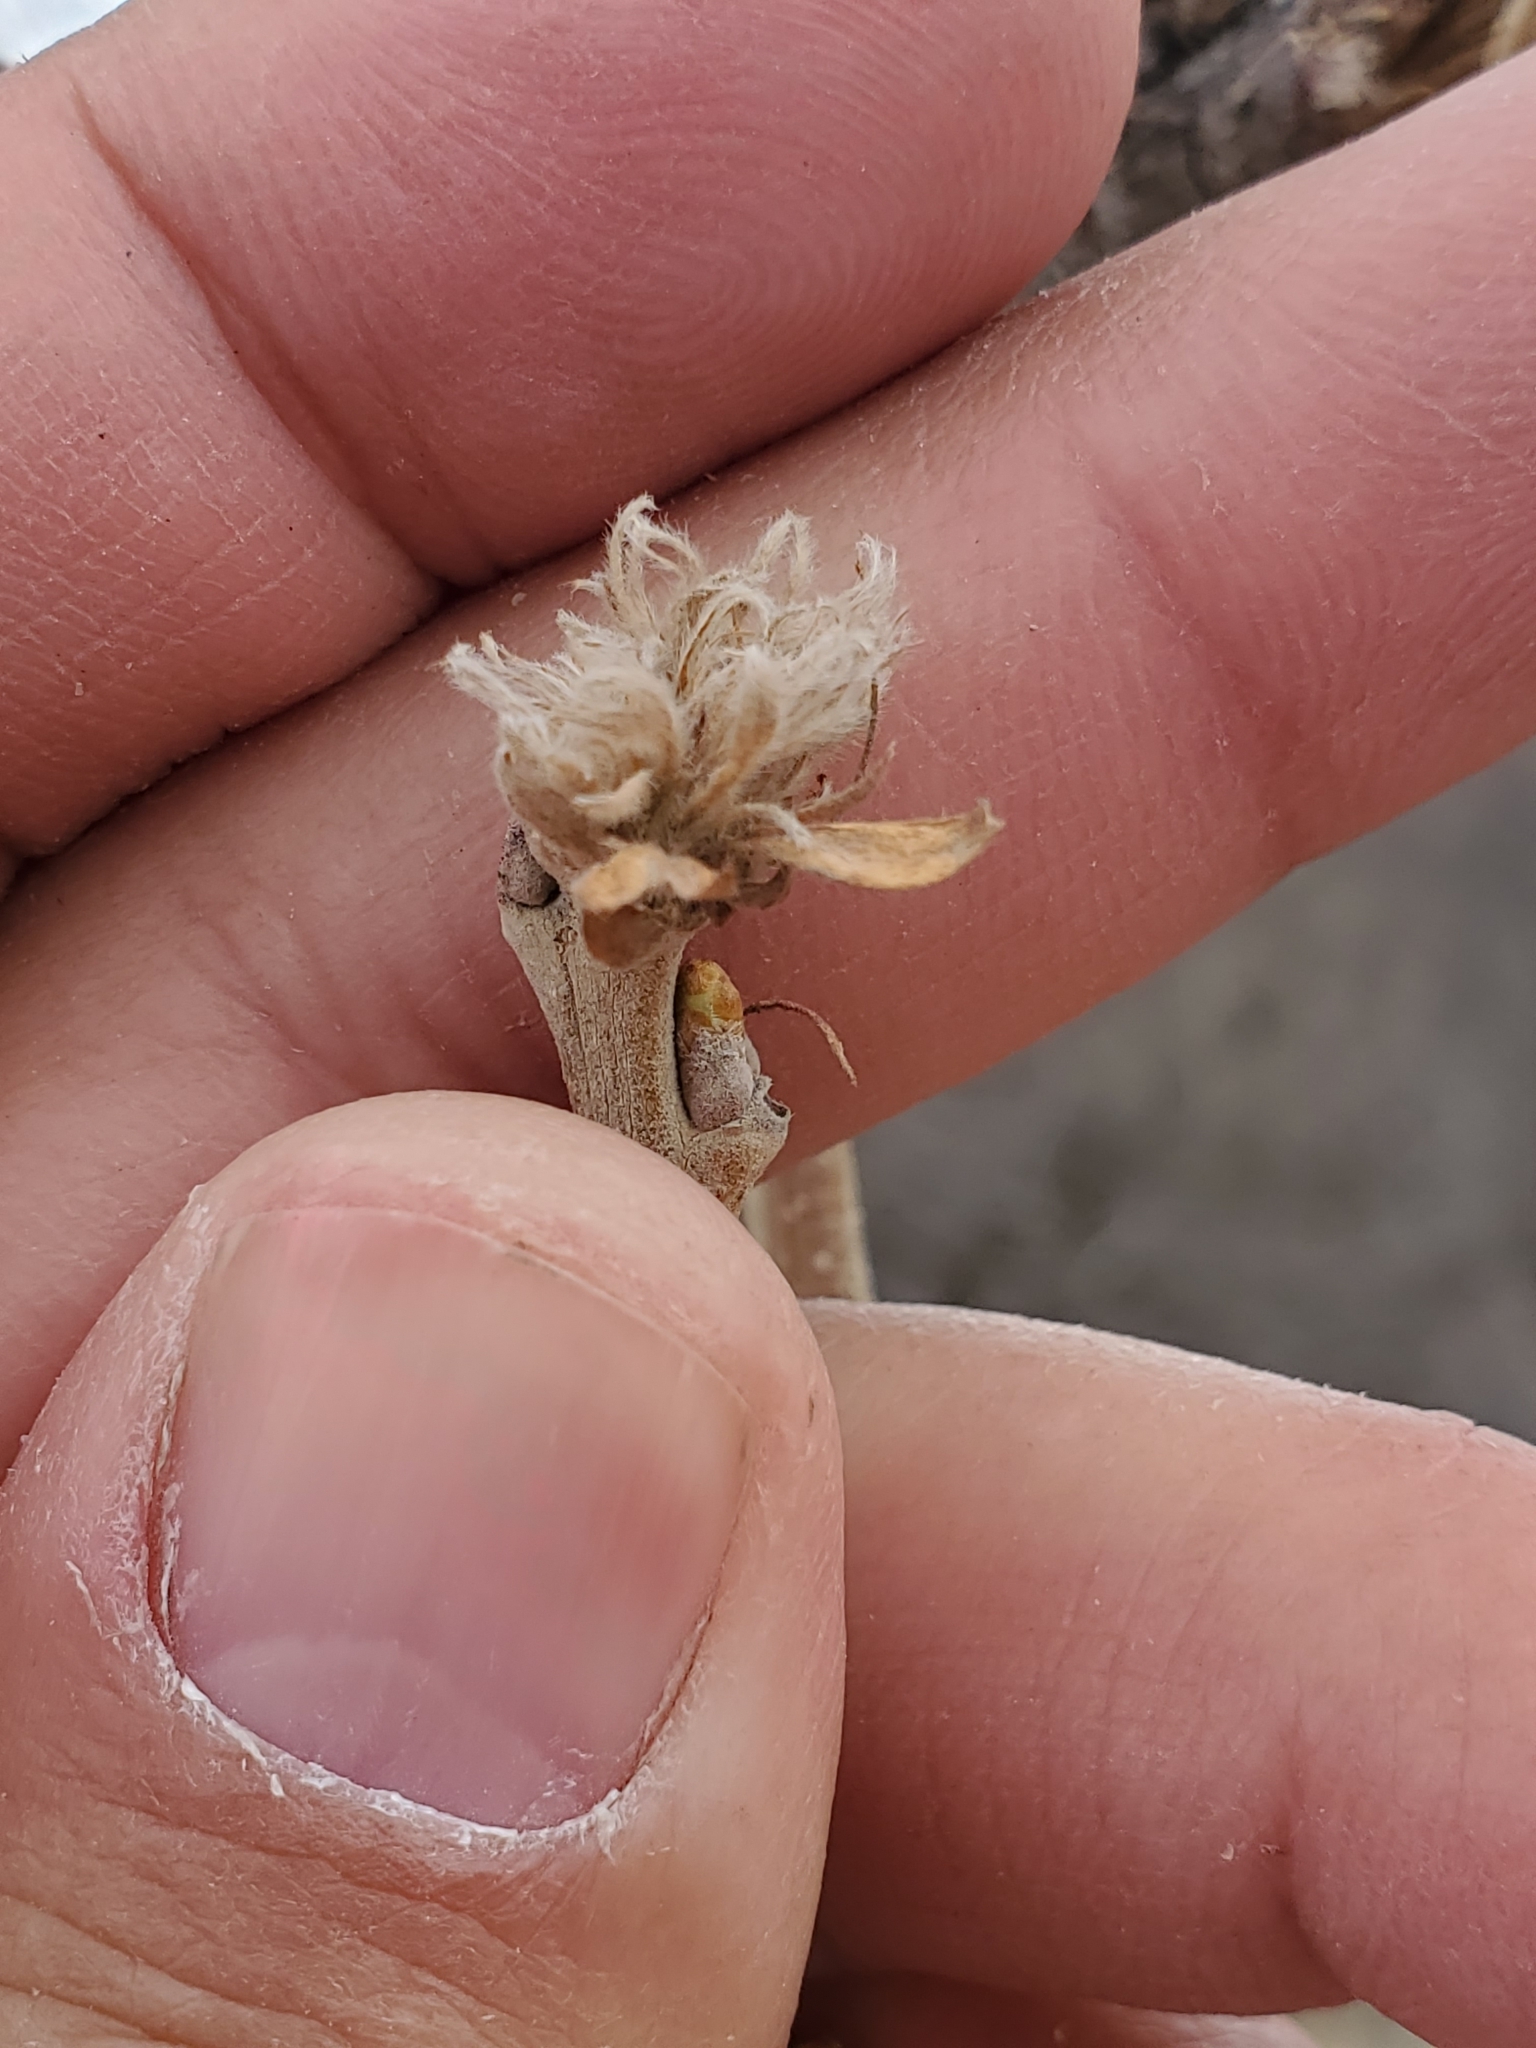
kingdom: Animalia
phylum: Arthropoda
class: Insecta
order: Hymenoptera
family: Cynipidae
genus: Andricus
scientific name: Andricus
